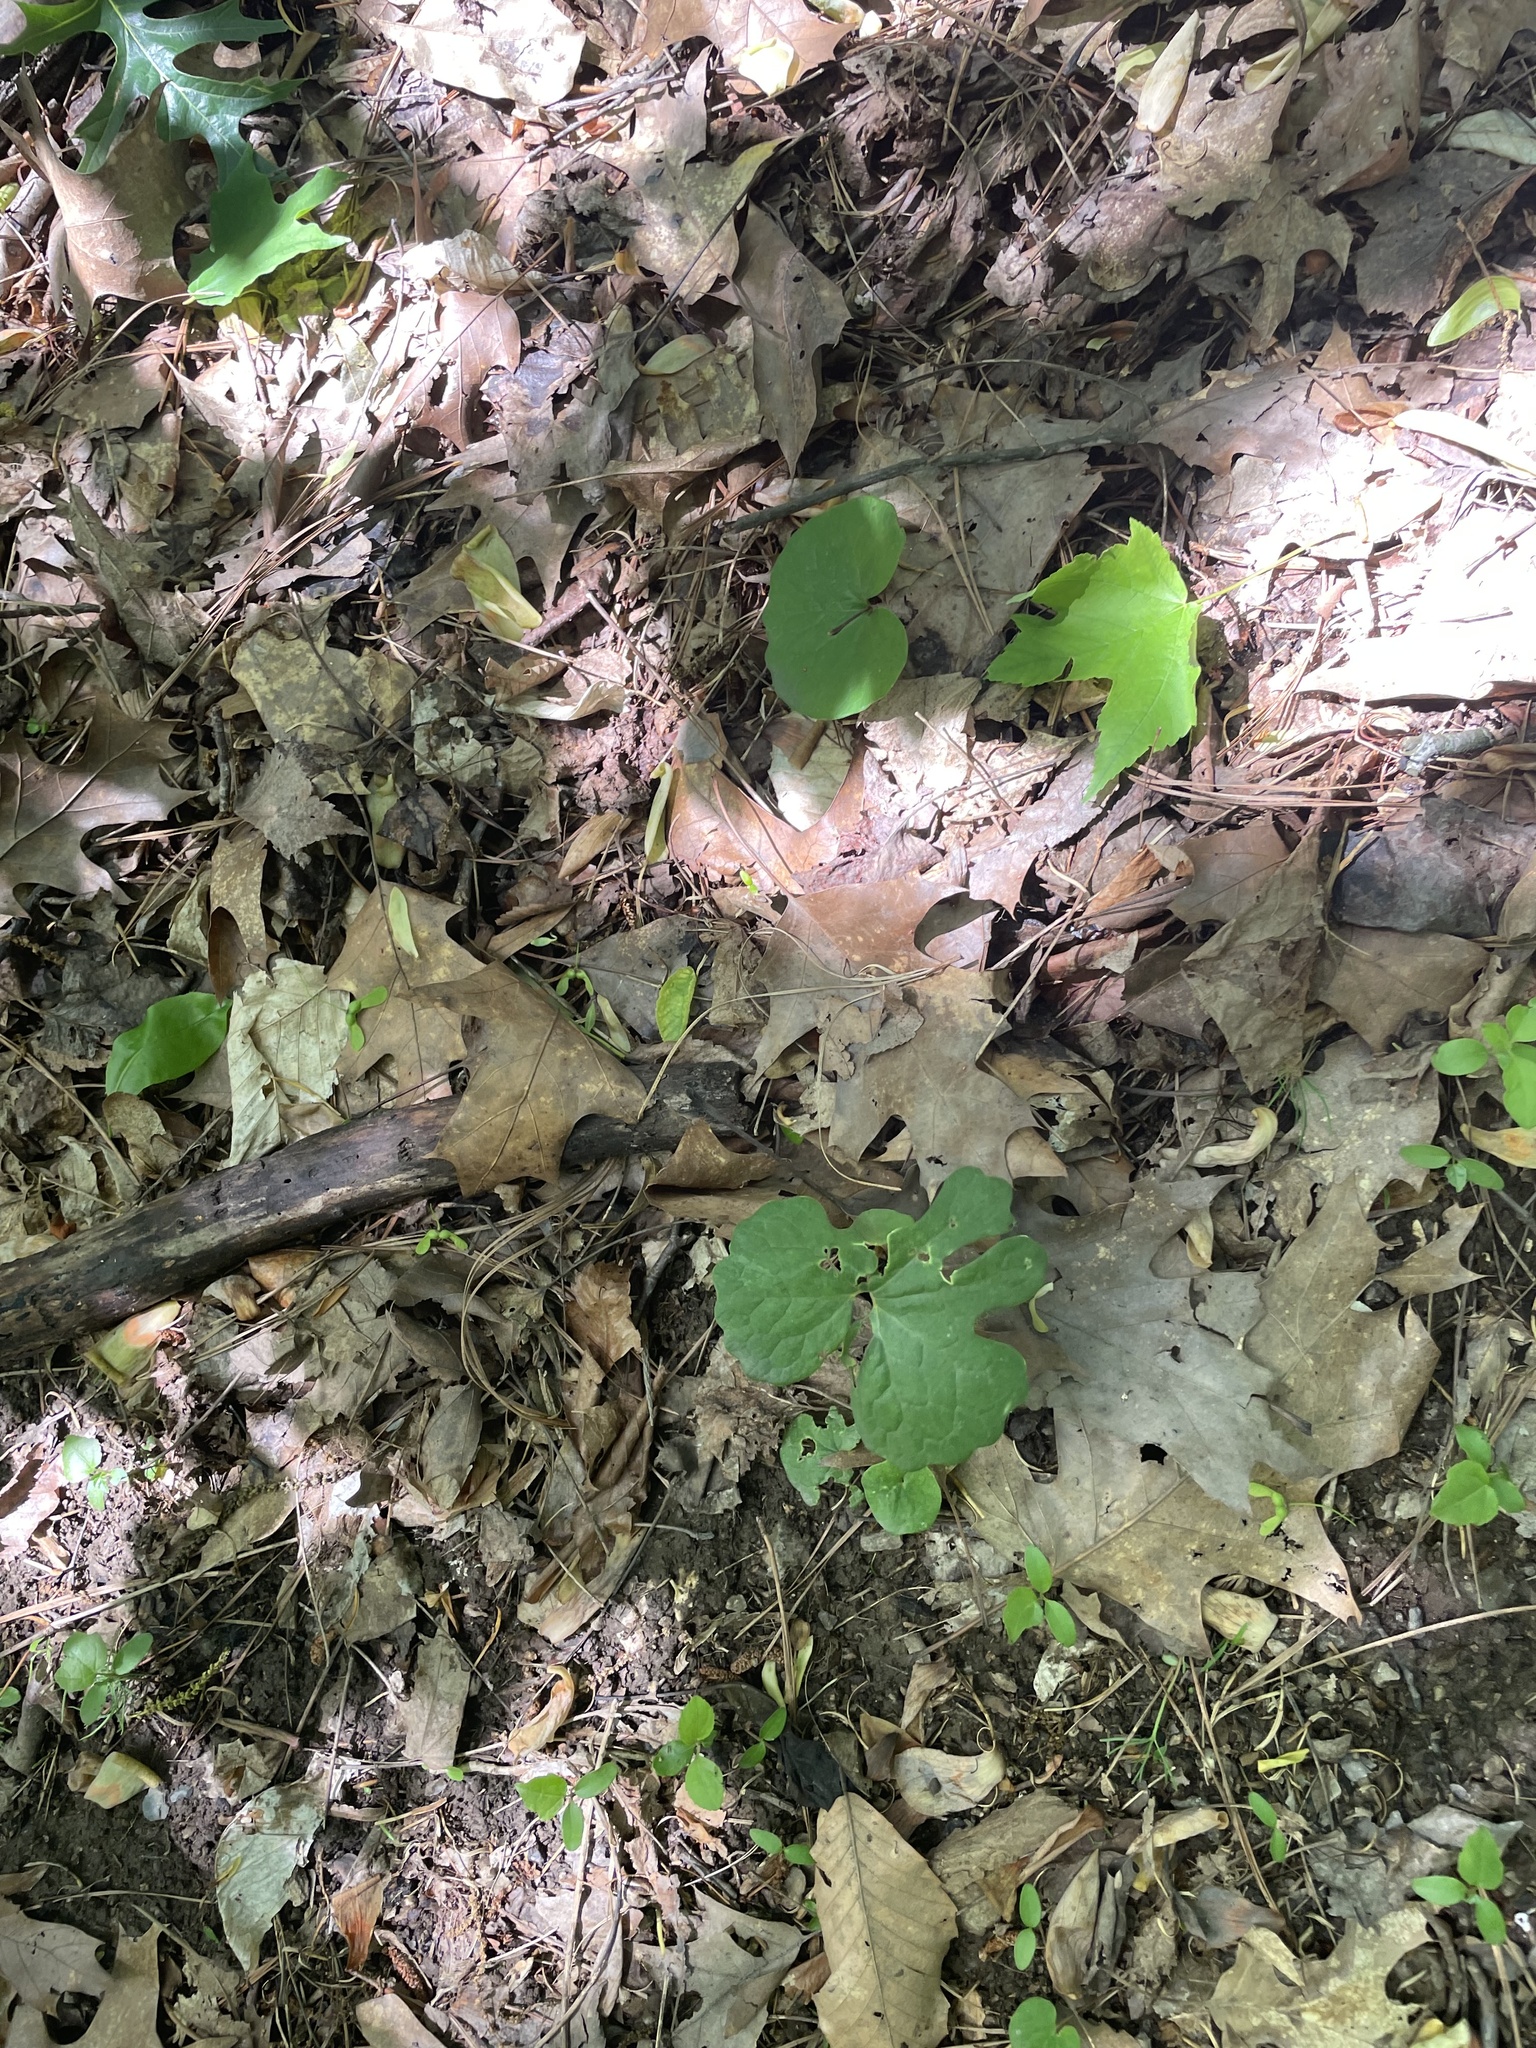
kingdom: Plantae
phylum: Tracheophyta
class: Magnoliopsida
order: Ranunculales
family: Papaveraceae
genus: Sanguinaria
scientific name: Sanguinaria canadensis
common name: Bloodroot
